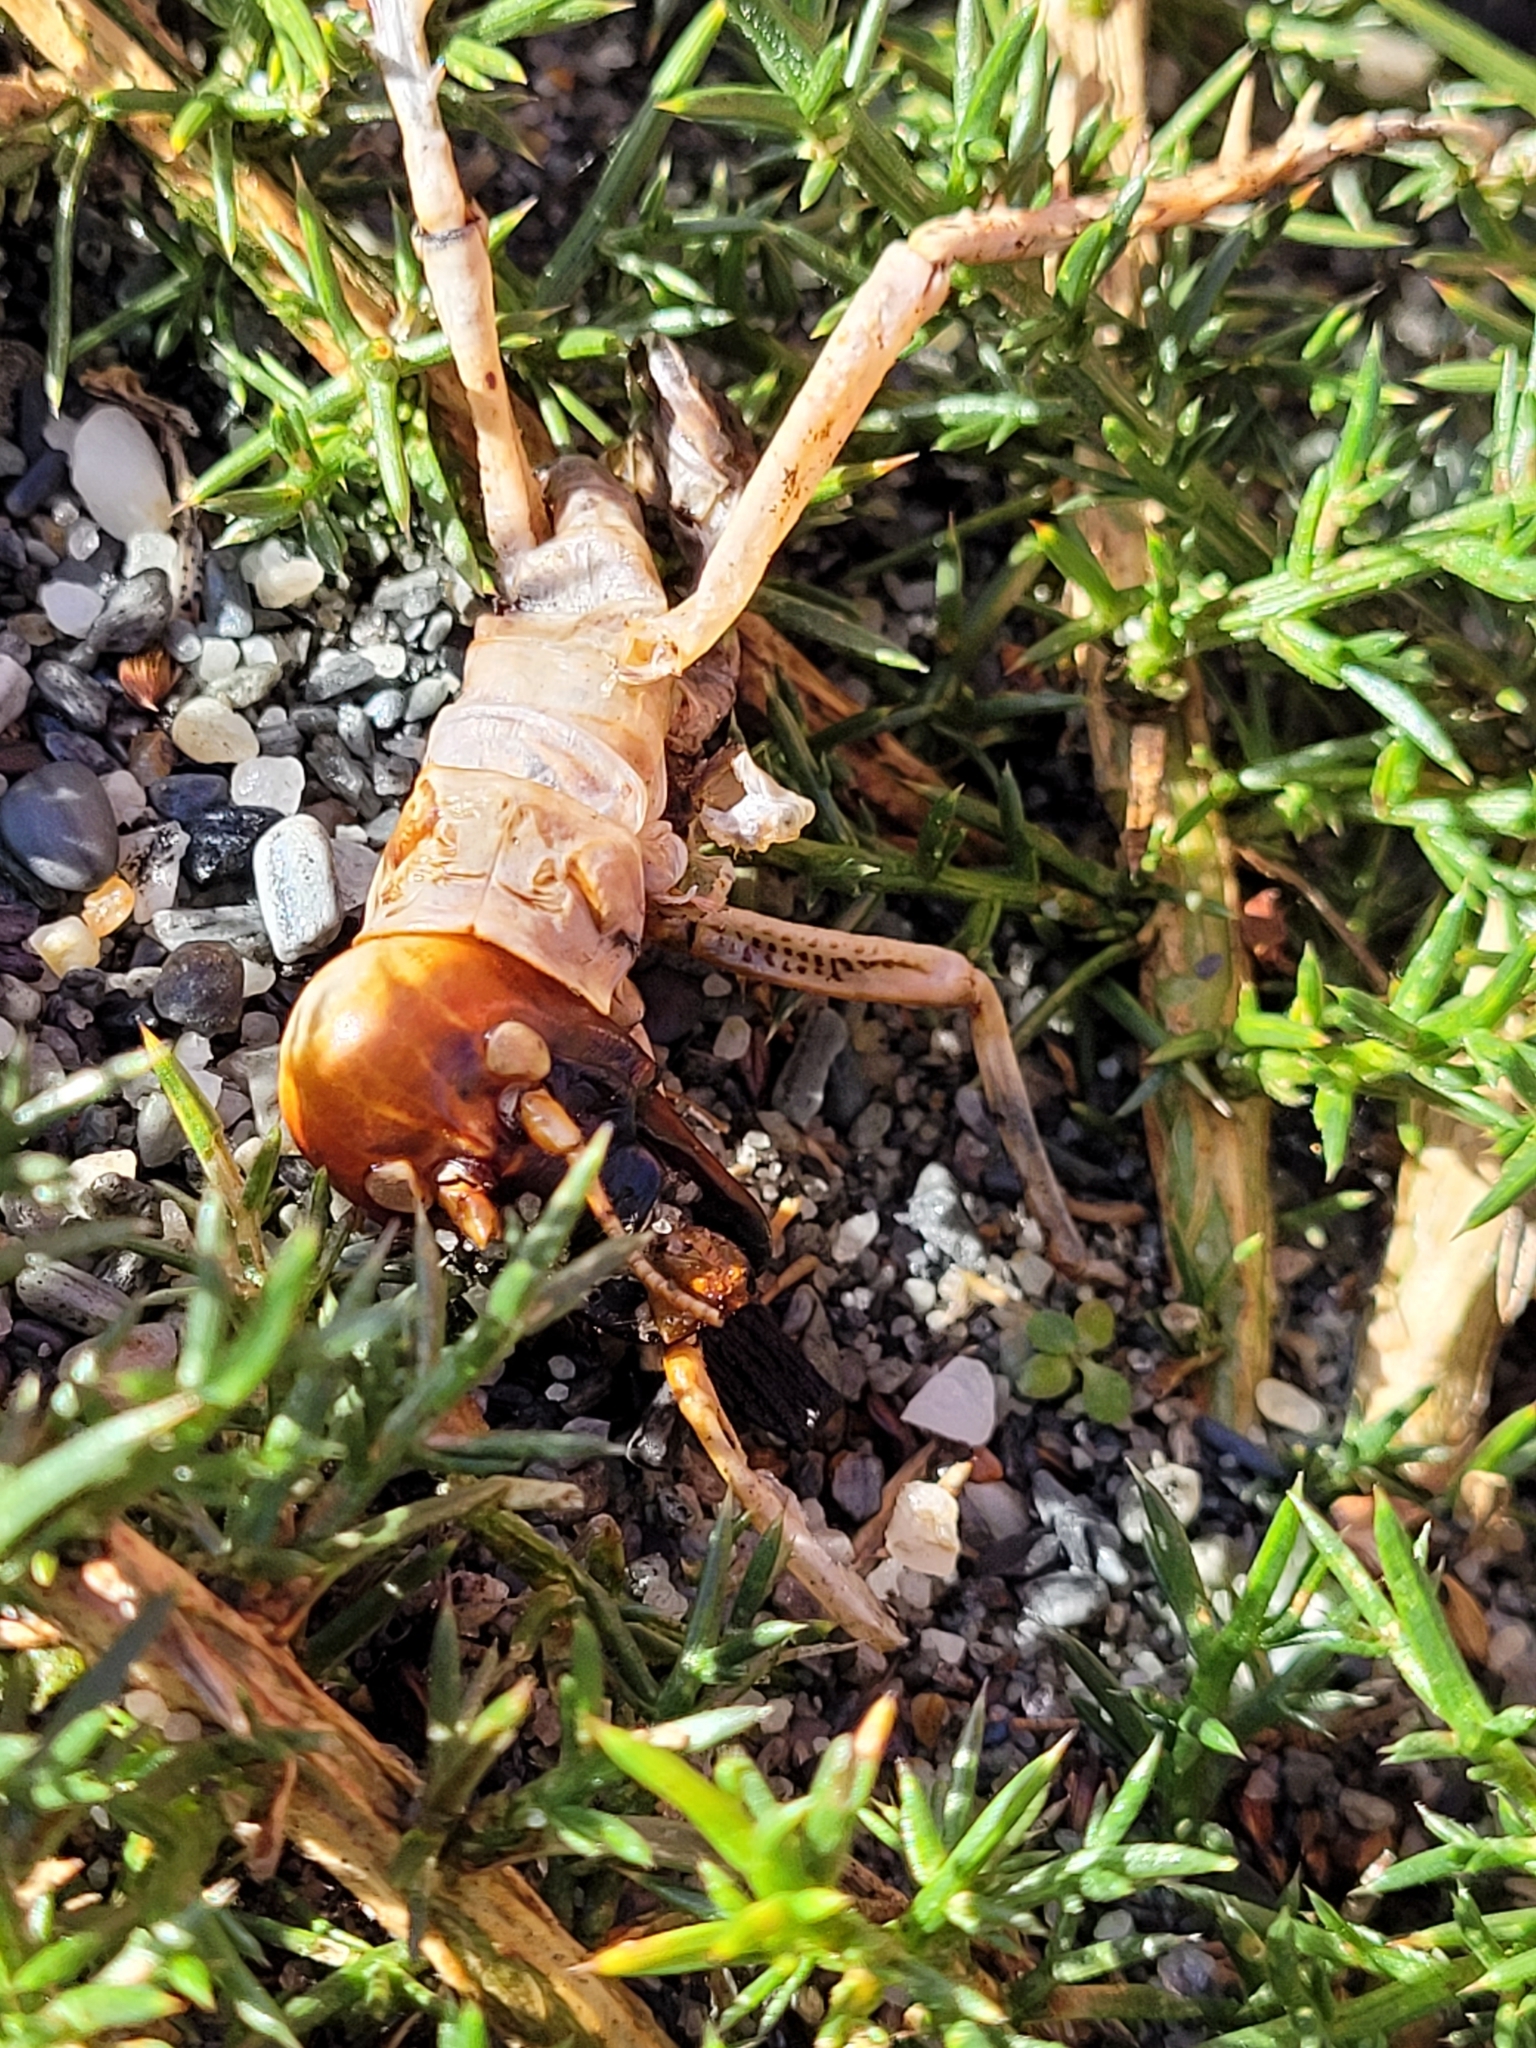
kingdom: Animalia
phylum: Arthropoda
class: Insecta
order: Orthoptera
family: Anostostomatidae
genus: Hemideina
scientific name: Hemideina crassidens
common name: Wellington tree weta
